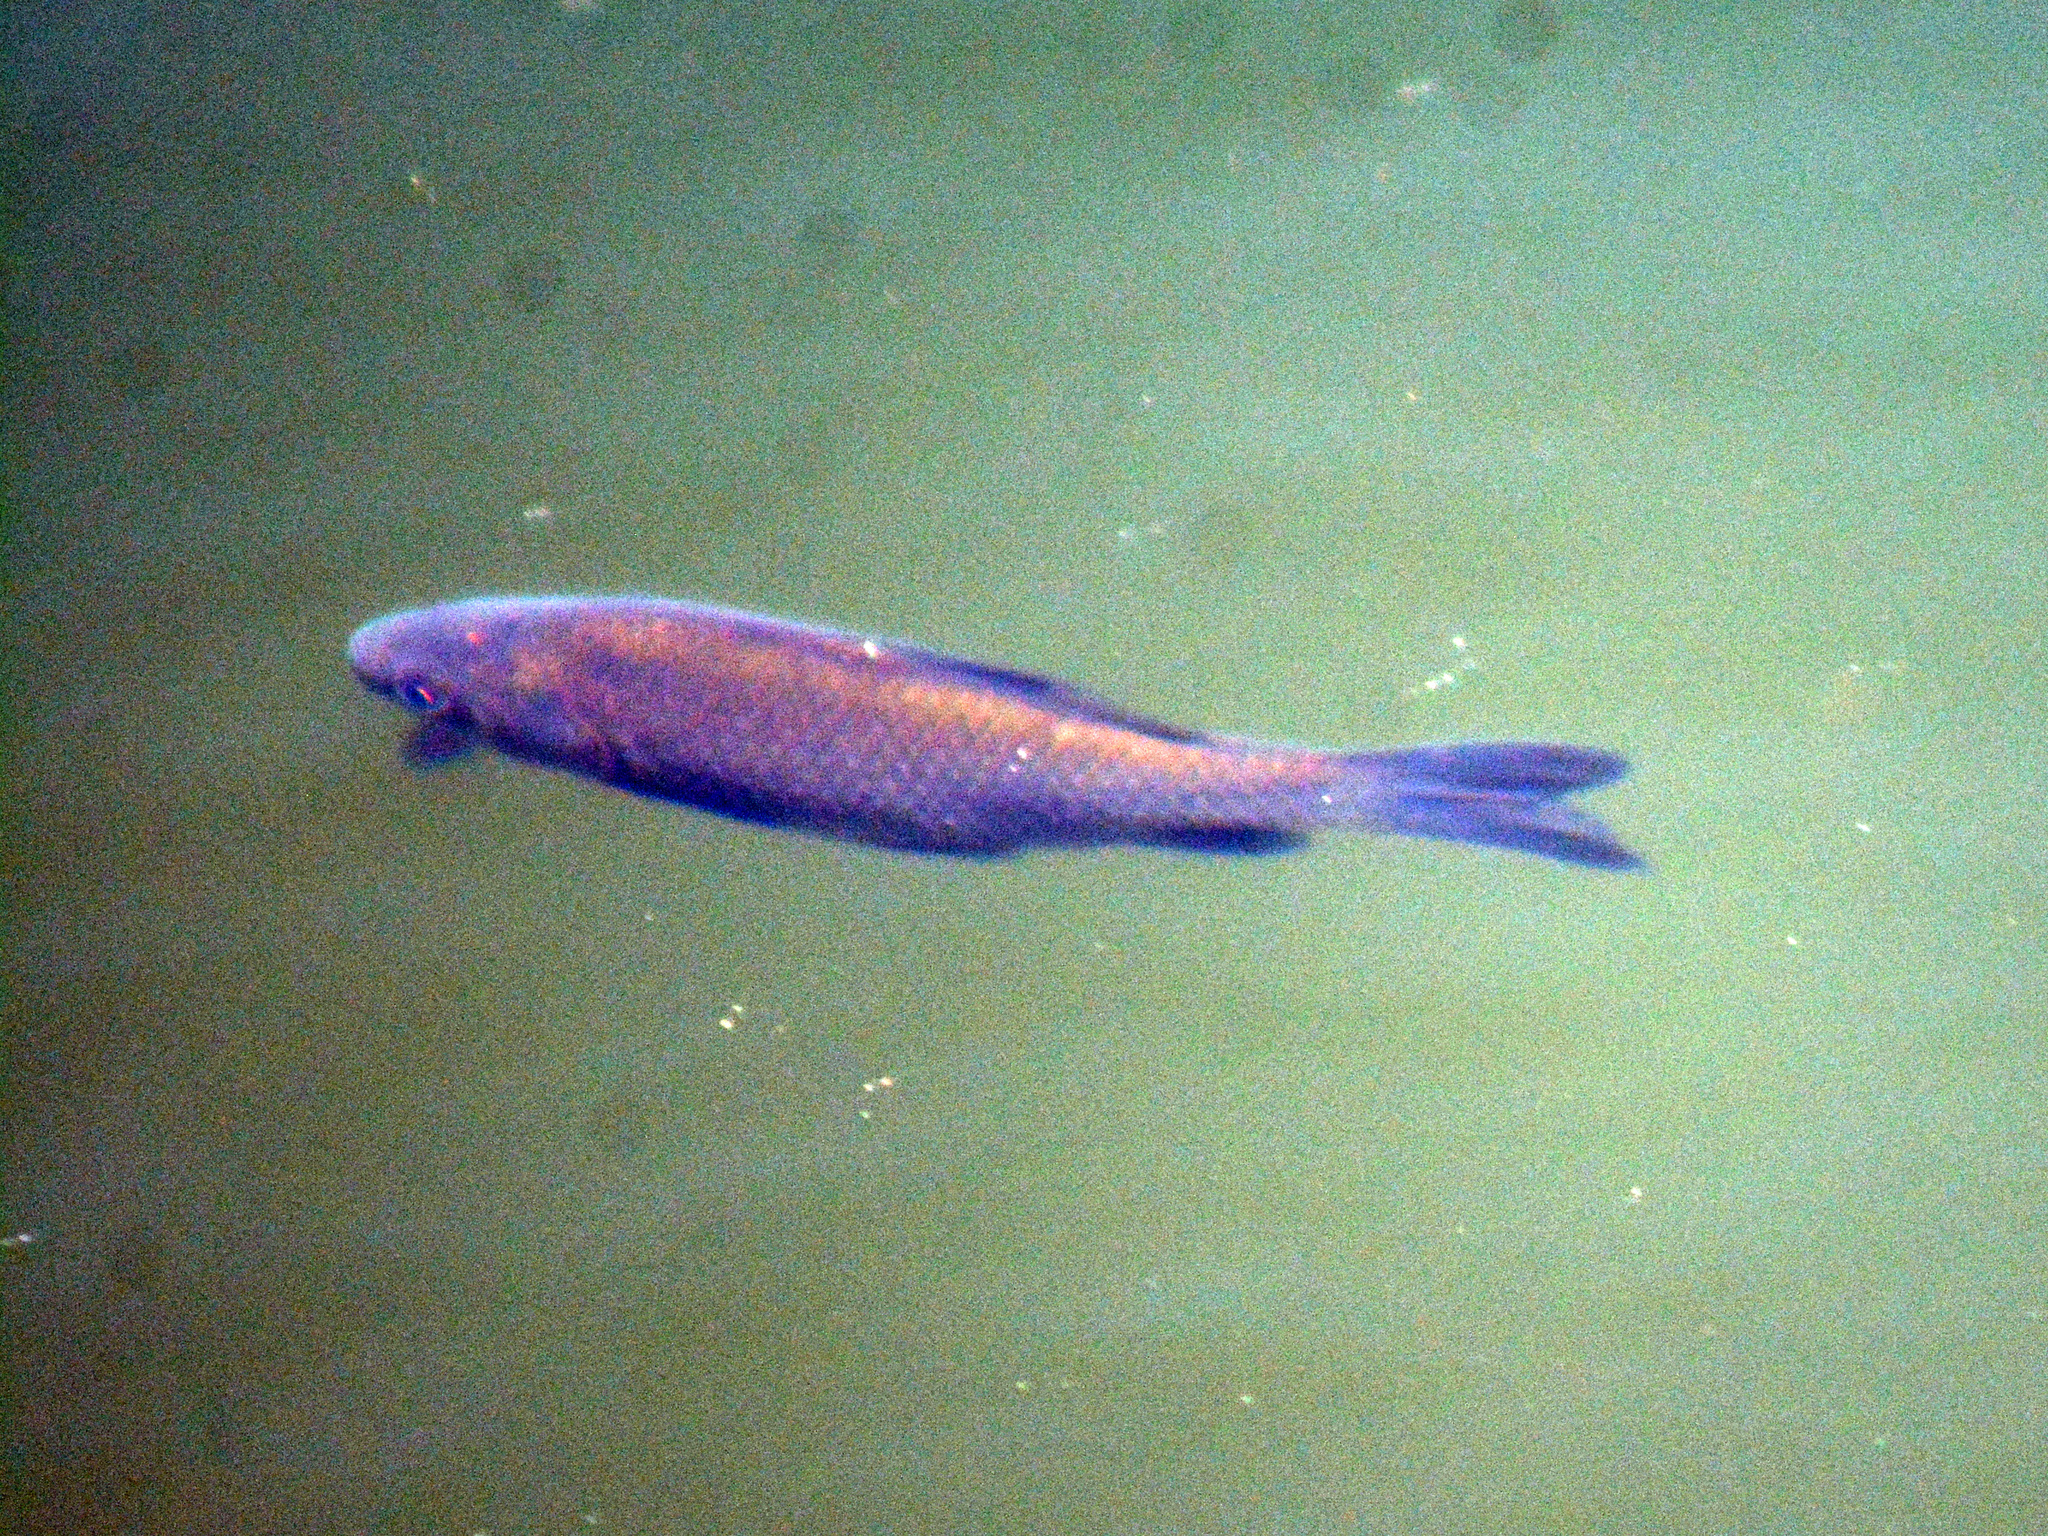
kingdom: Animalia
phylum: Chordata
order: Cypriniformes
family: Cyprinidae
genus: Carassius
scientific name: Carassius gibelio
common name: Prussian carp
